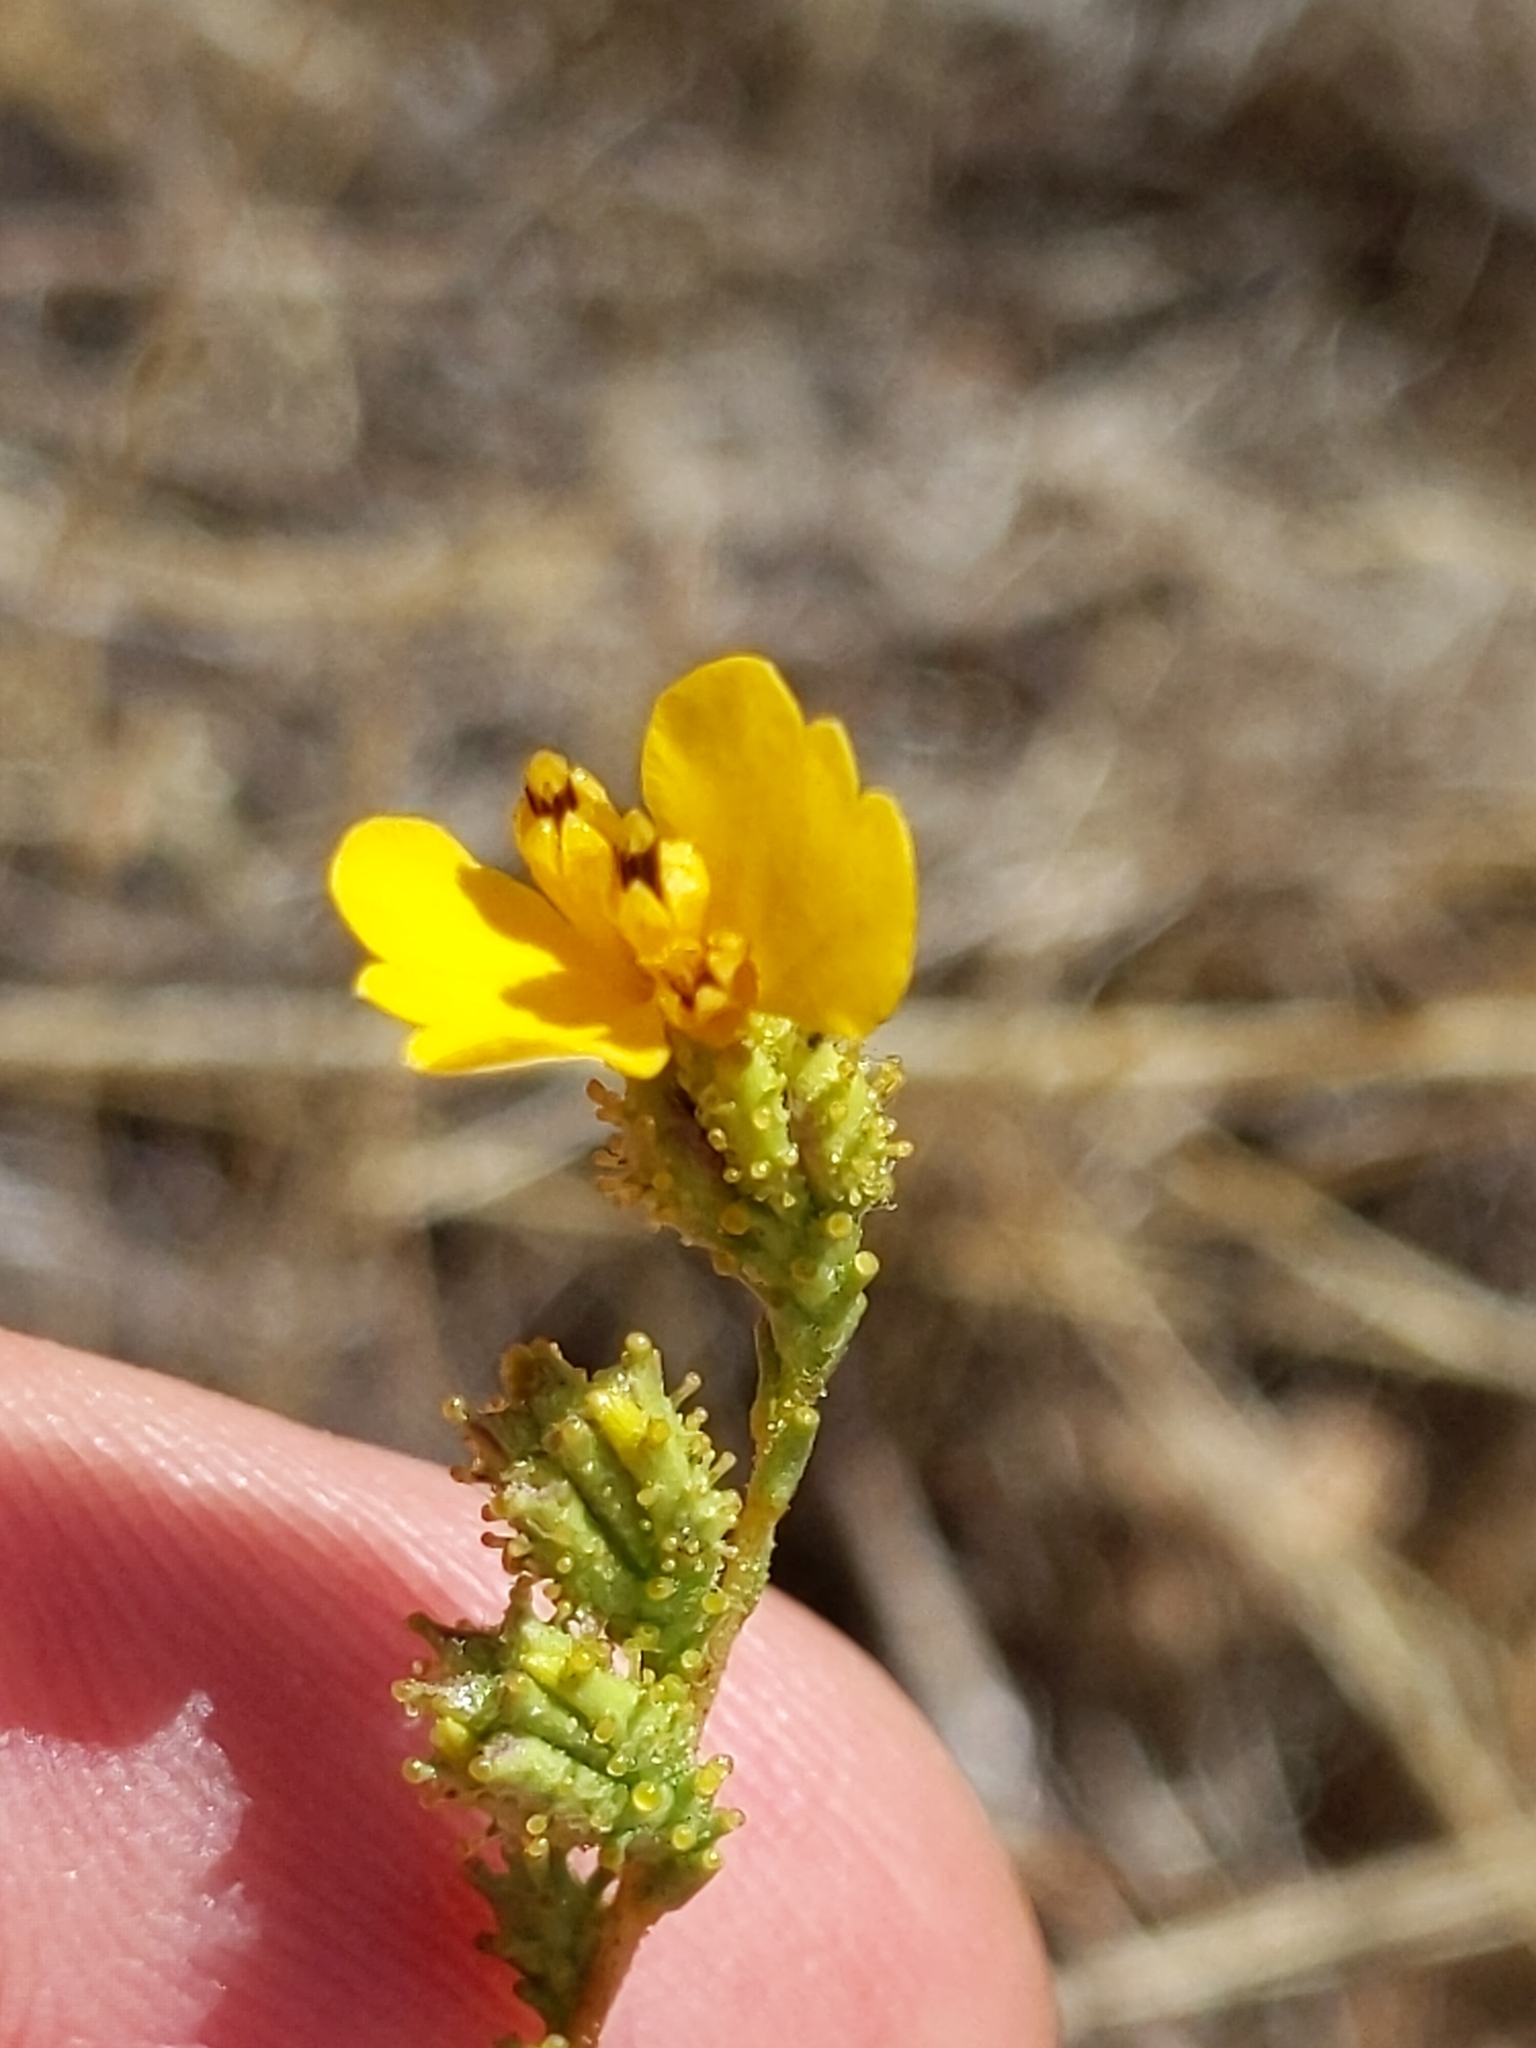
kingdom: Plantae
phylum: Tracheophyta
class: Magnoliopsida
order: Asterales
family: Asteraceae
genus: Holocarpha
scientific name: Holocarpha virgata
